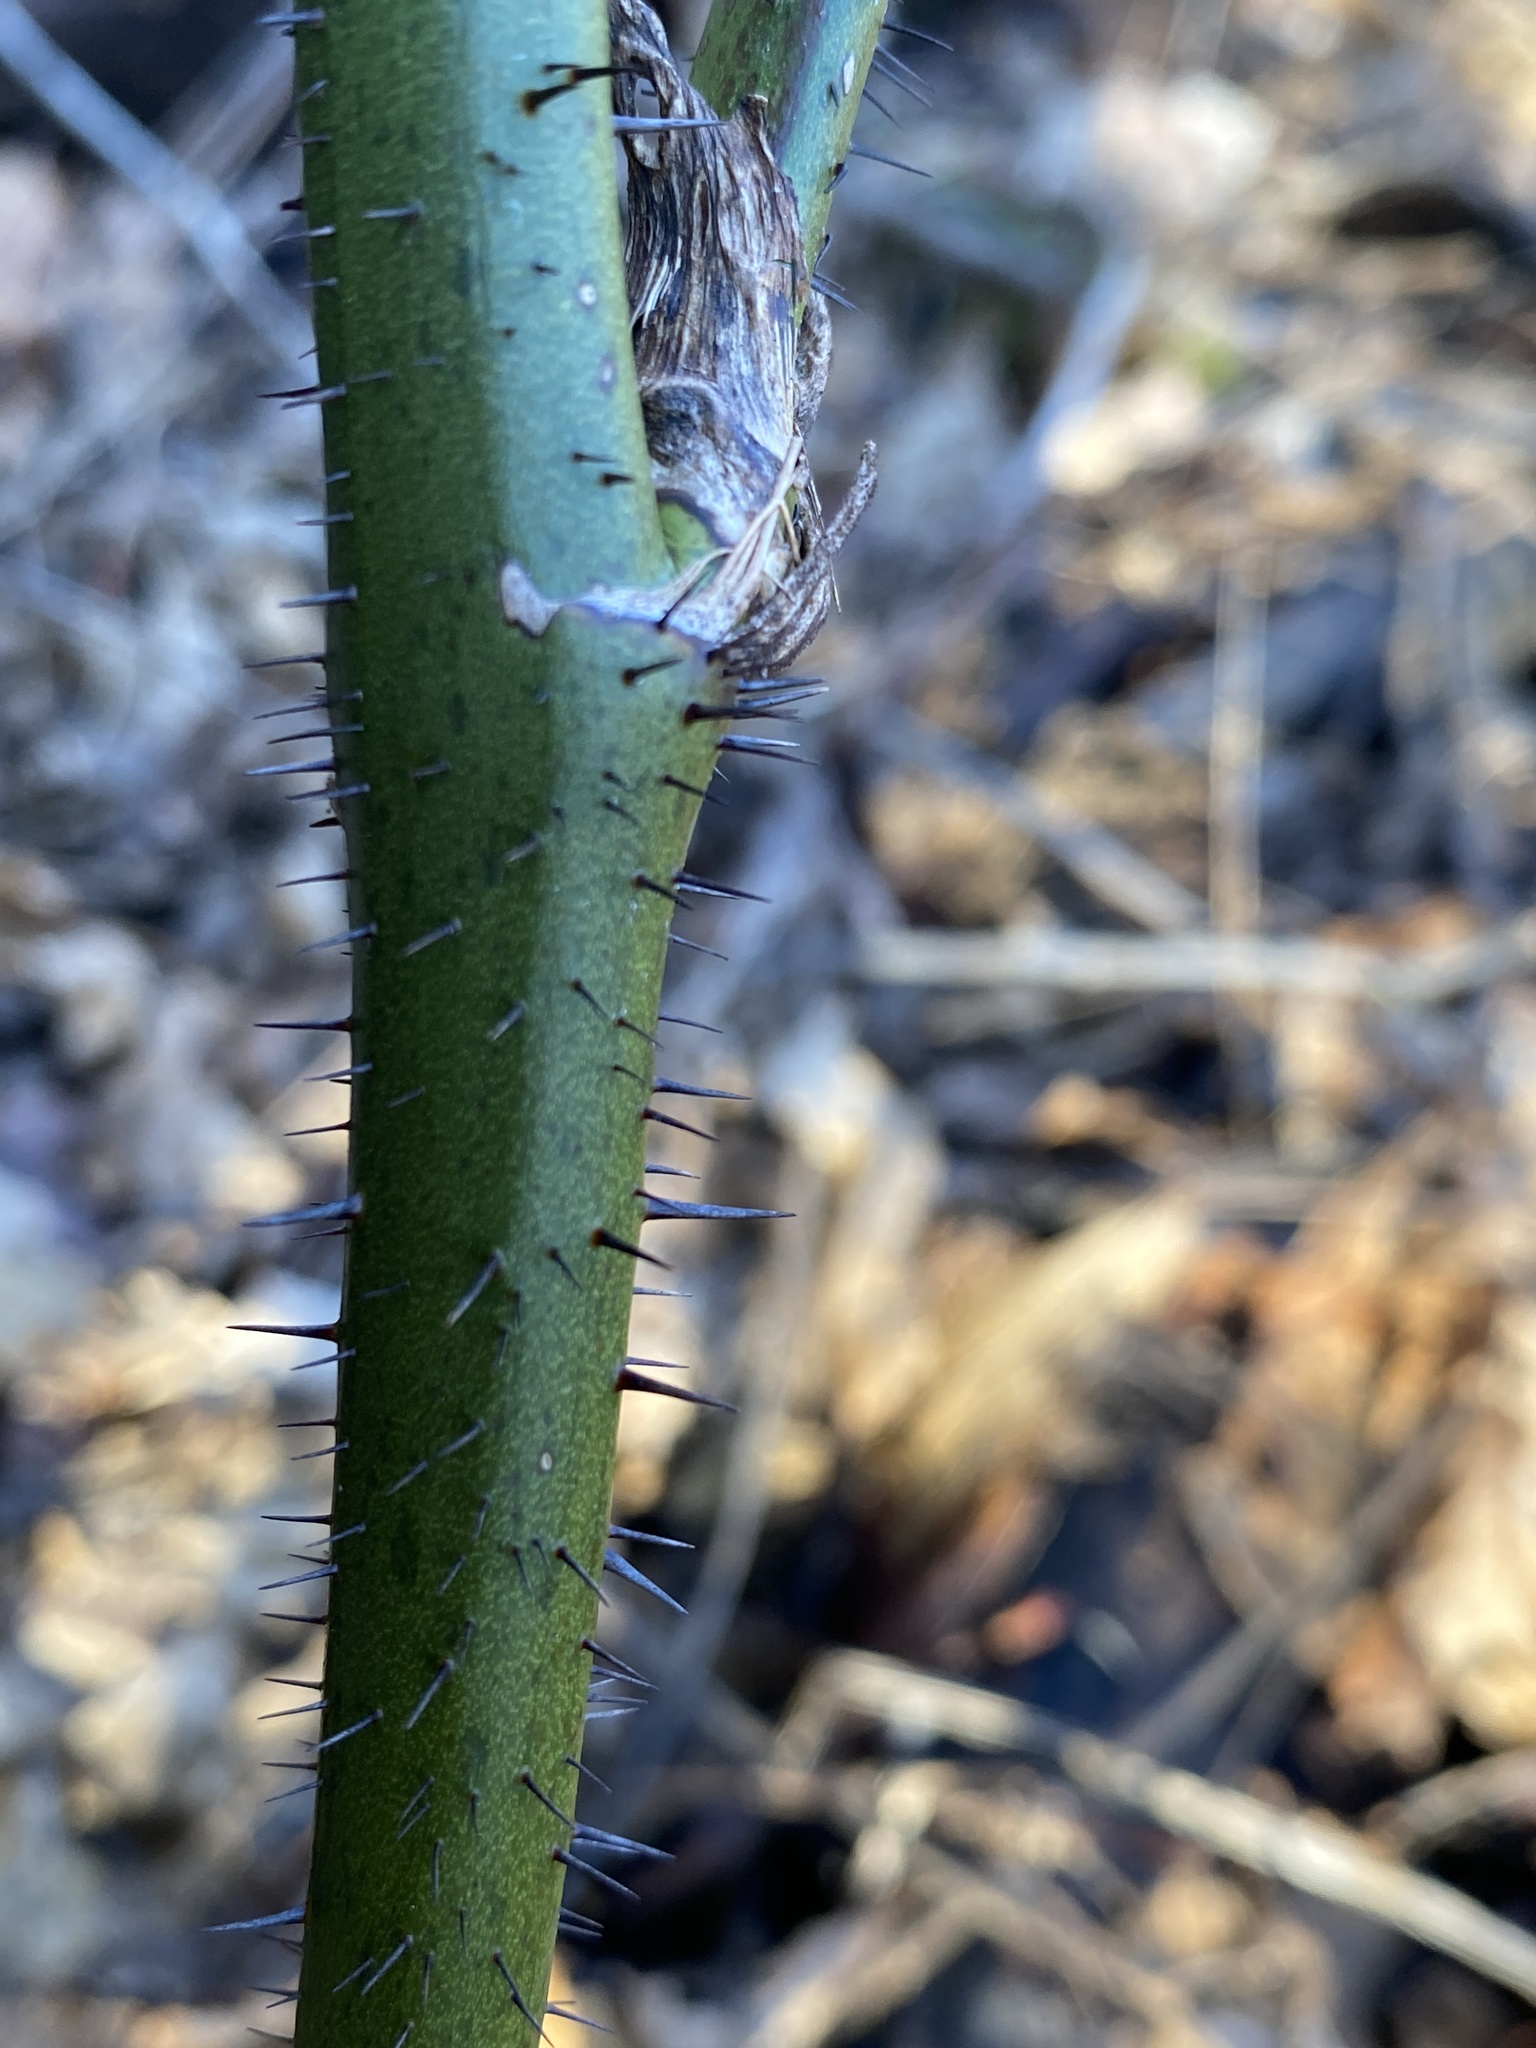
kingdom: Plantae
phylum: Tracheophyta
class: Liliopsida
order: Liliales
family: Smilacaceae
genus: Smilax
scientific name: Smilax tamnoides
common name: Hellfetter
